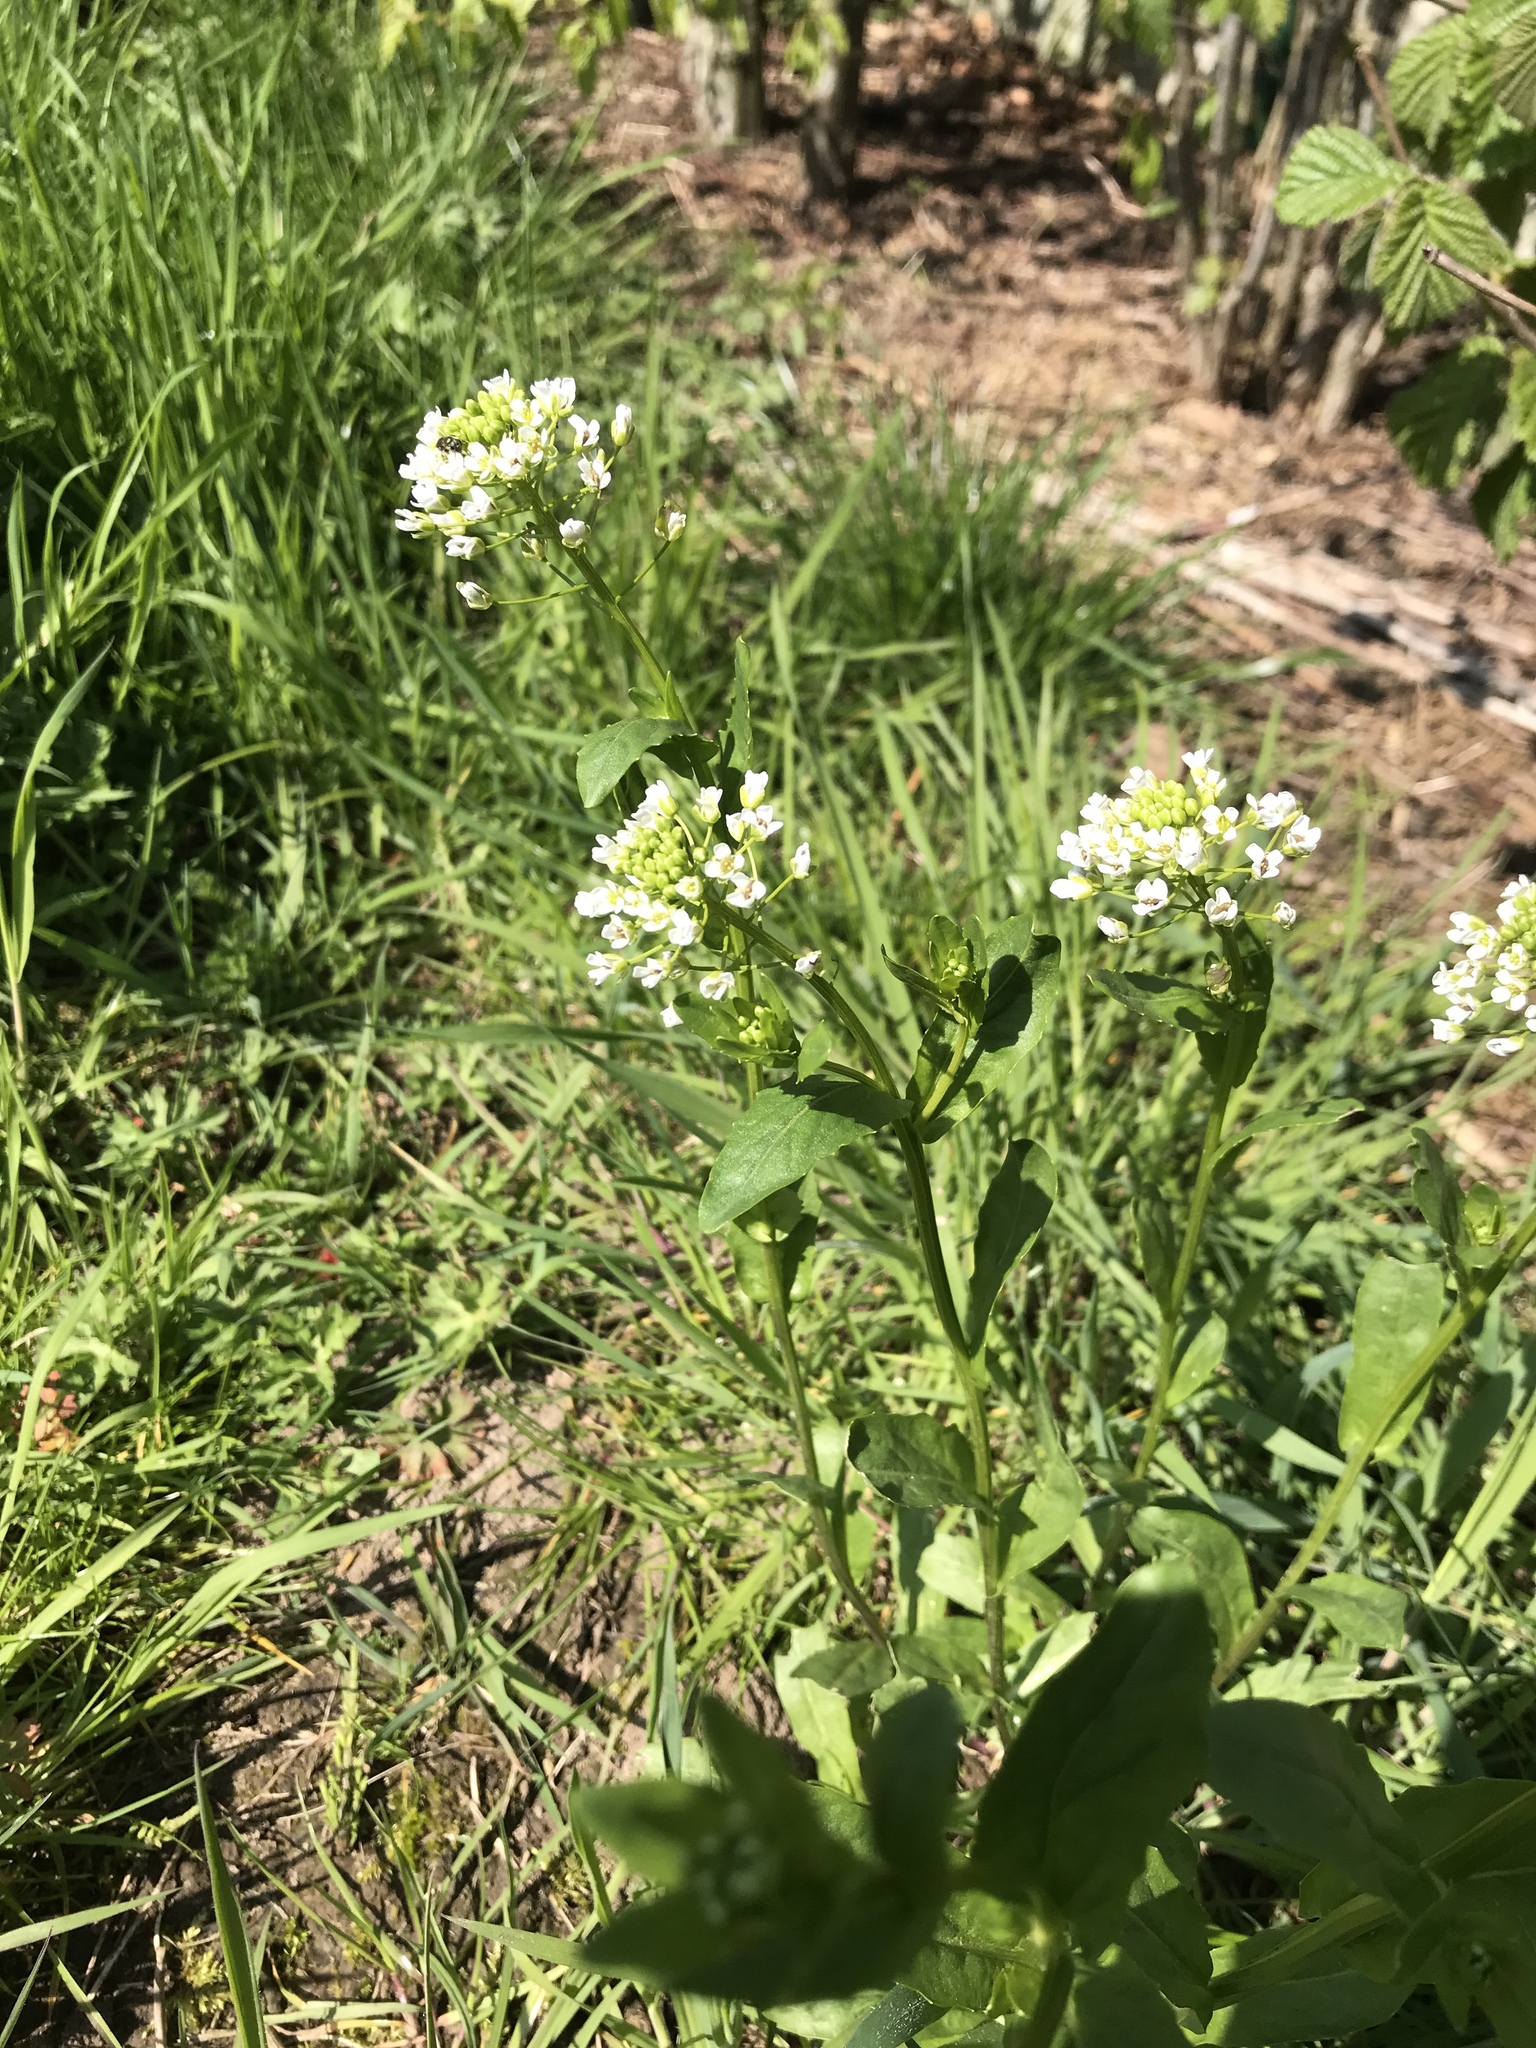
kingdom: Plantae
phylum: Tracheophyta
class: Magnoliopsida
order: Brassicales
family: Brassicaceae
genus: Thlaspi
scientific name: Thlaspi arvense
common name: Field pennycress
